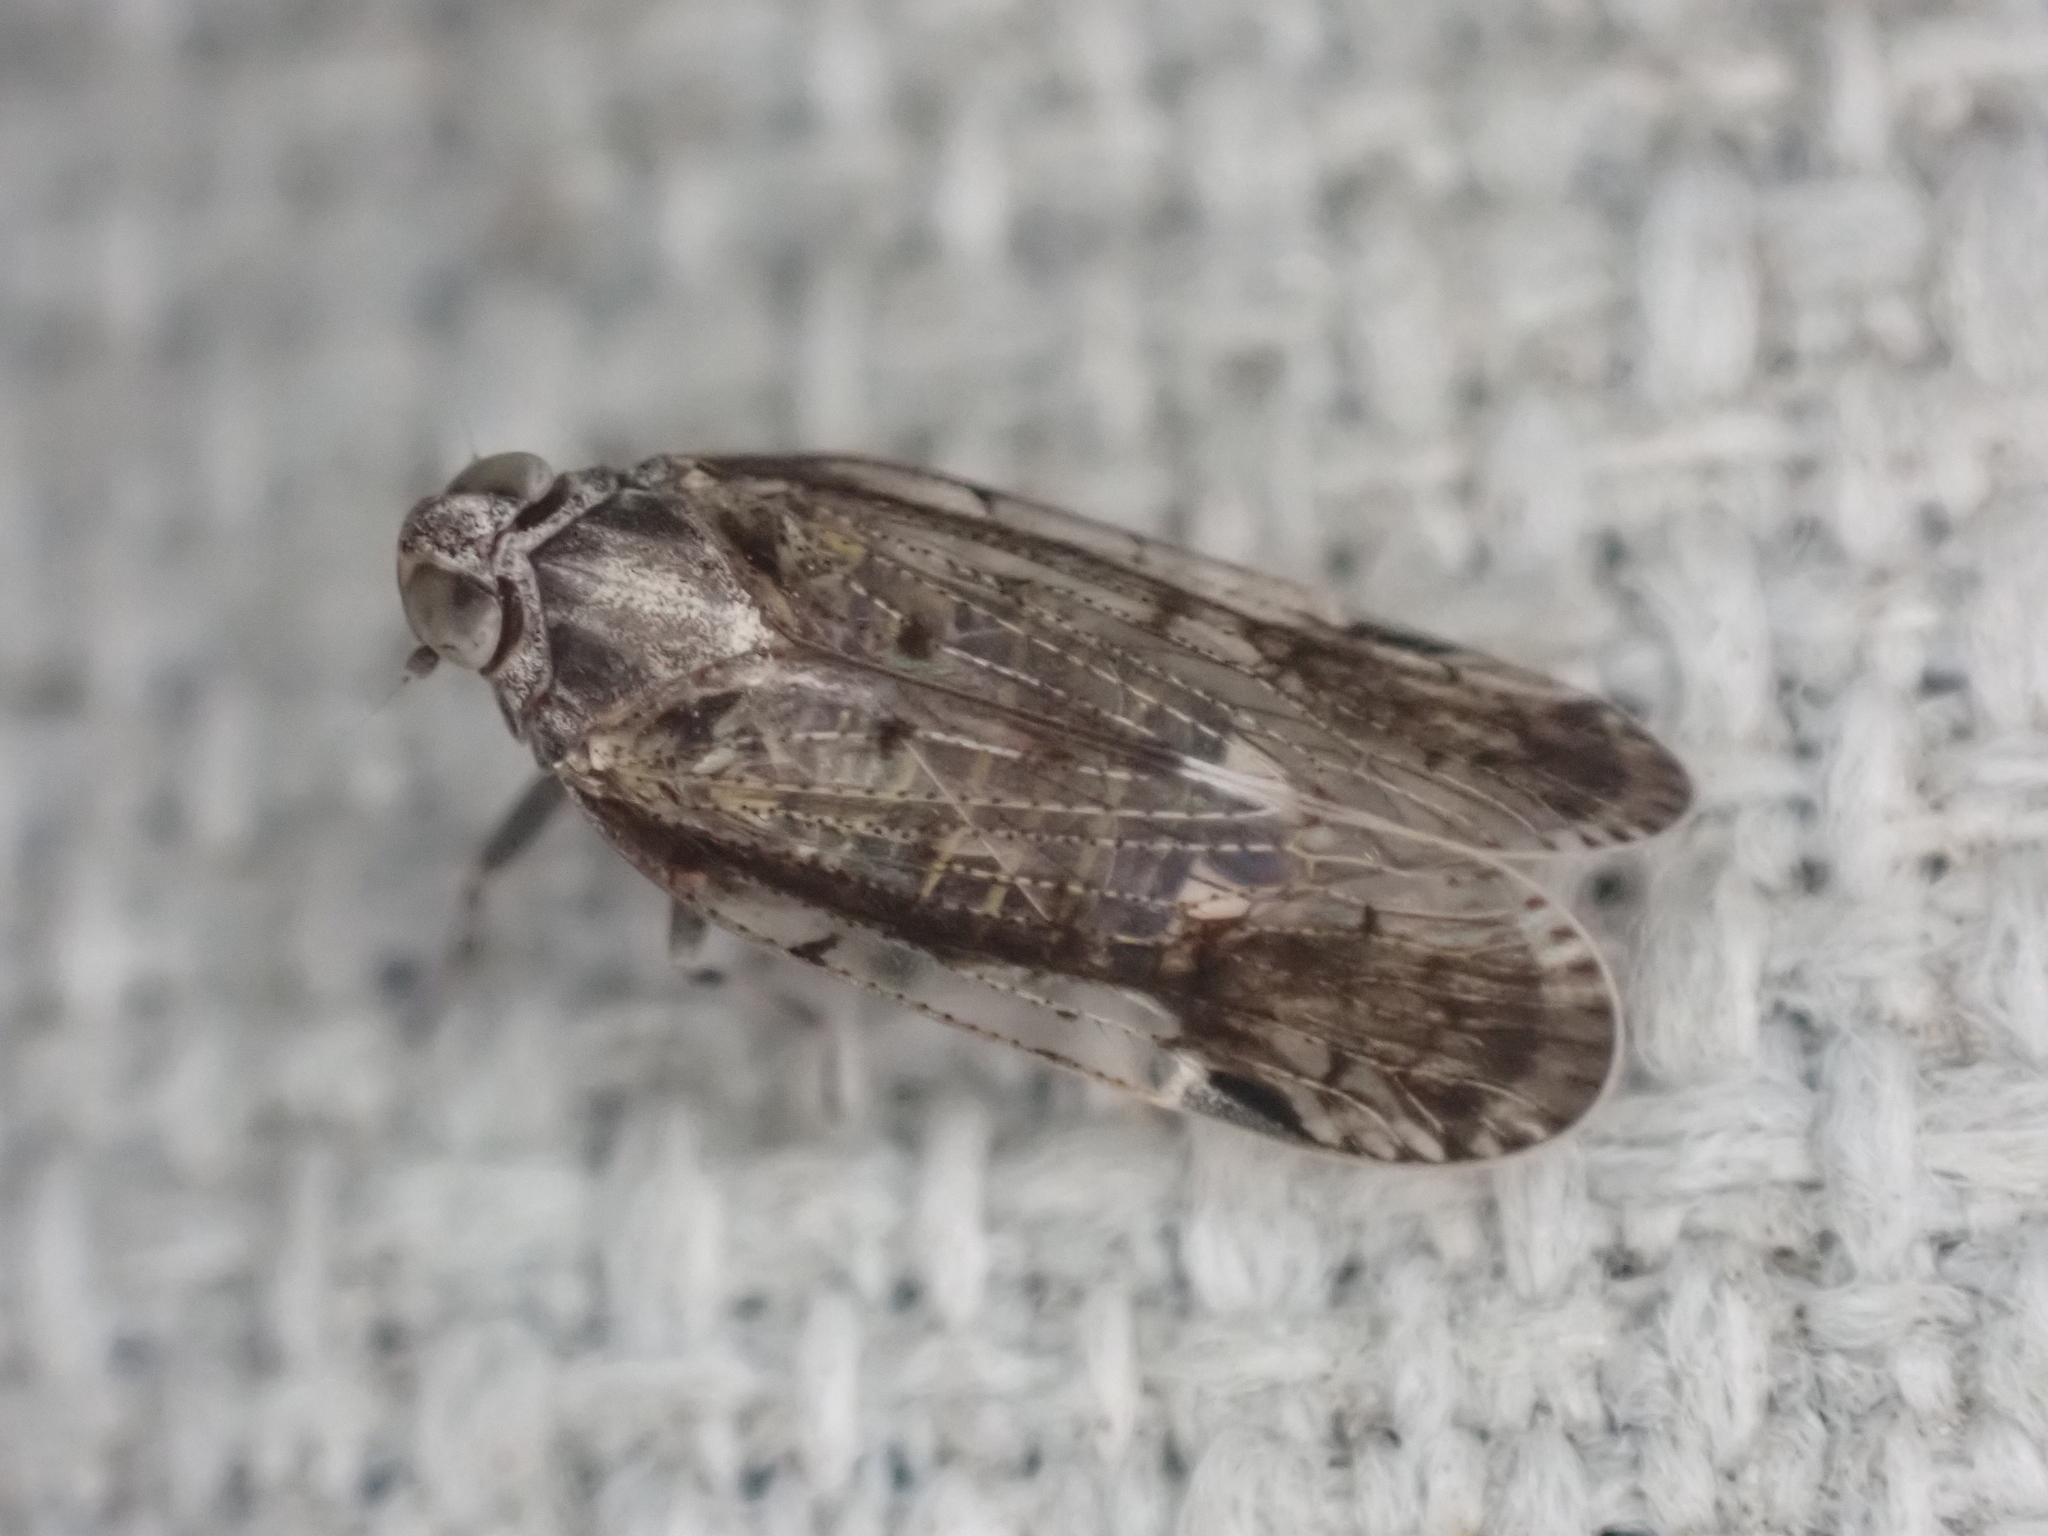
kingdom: Animalia
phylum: Arthropoda
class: Insecta
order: Hemiptera
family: Cixiidae
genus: Melanoliarus
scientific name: Melanoliarus placitus
